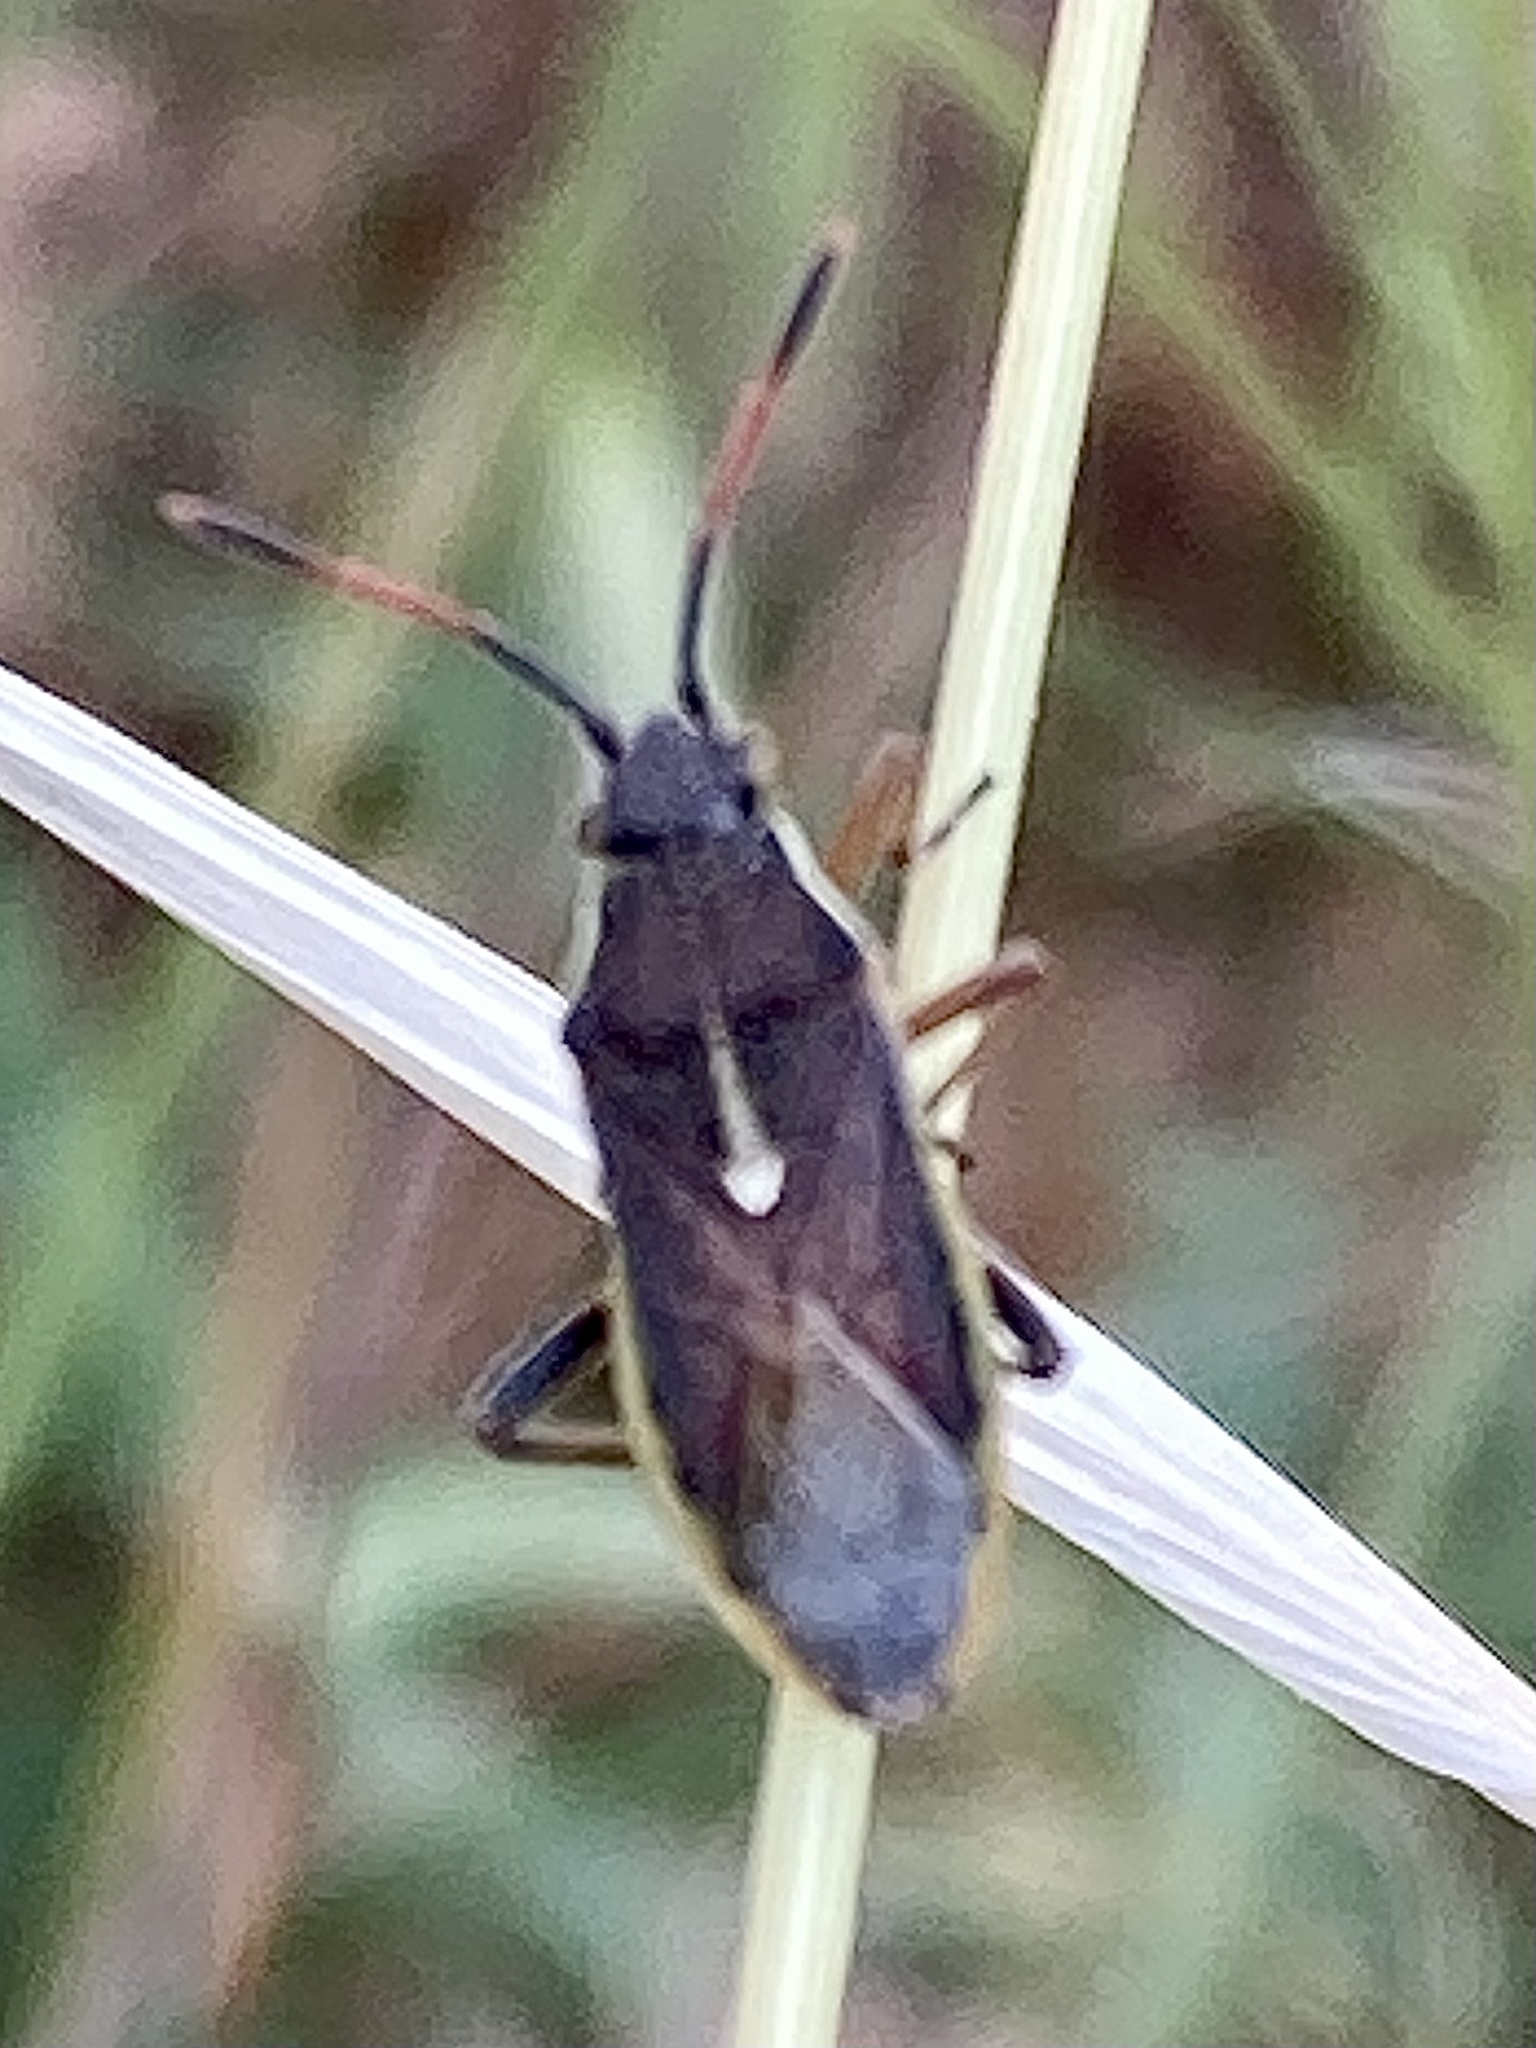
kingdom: Animalia
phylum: Arthropoda
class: Insecta
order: Hemiptera
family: Rhopalidae
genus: Maccevethus
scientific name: Maccevethus
